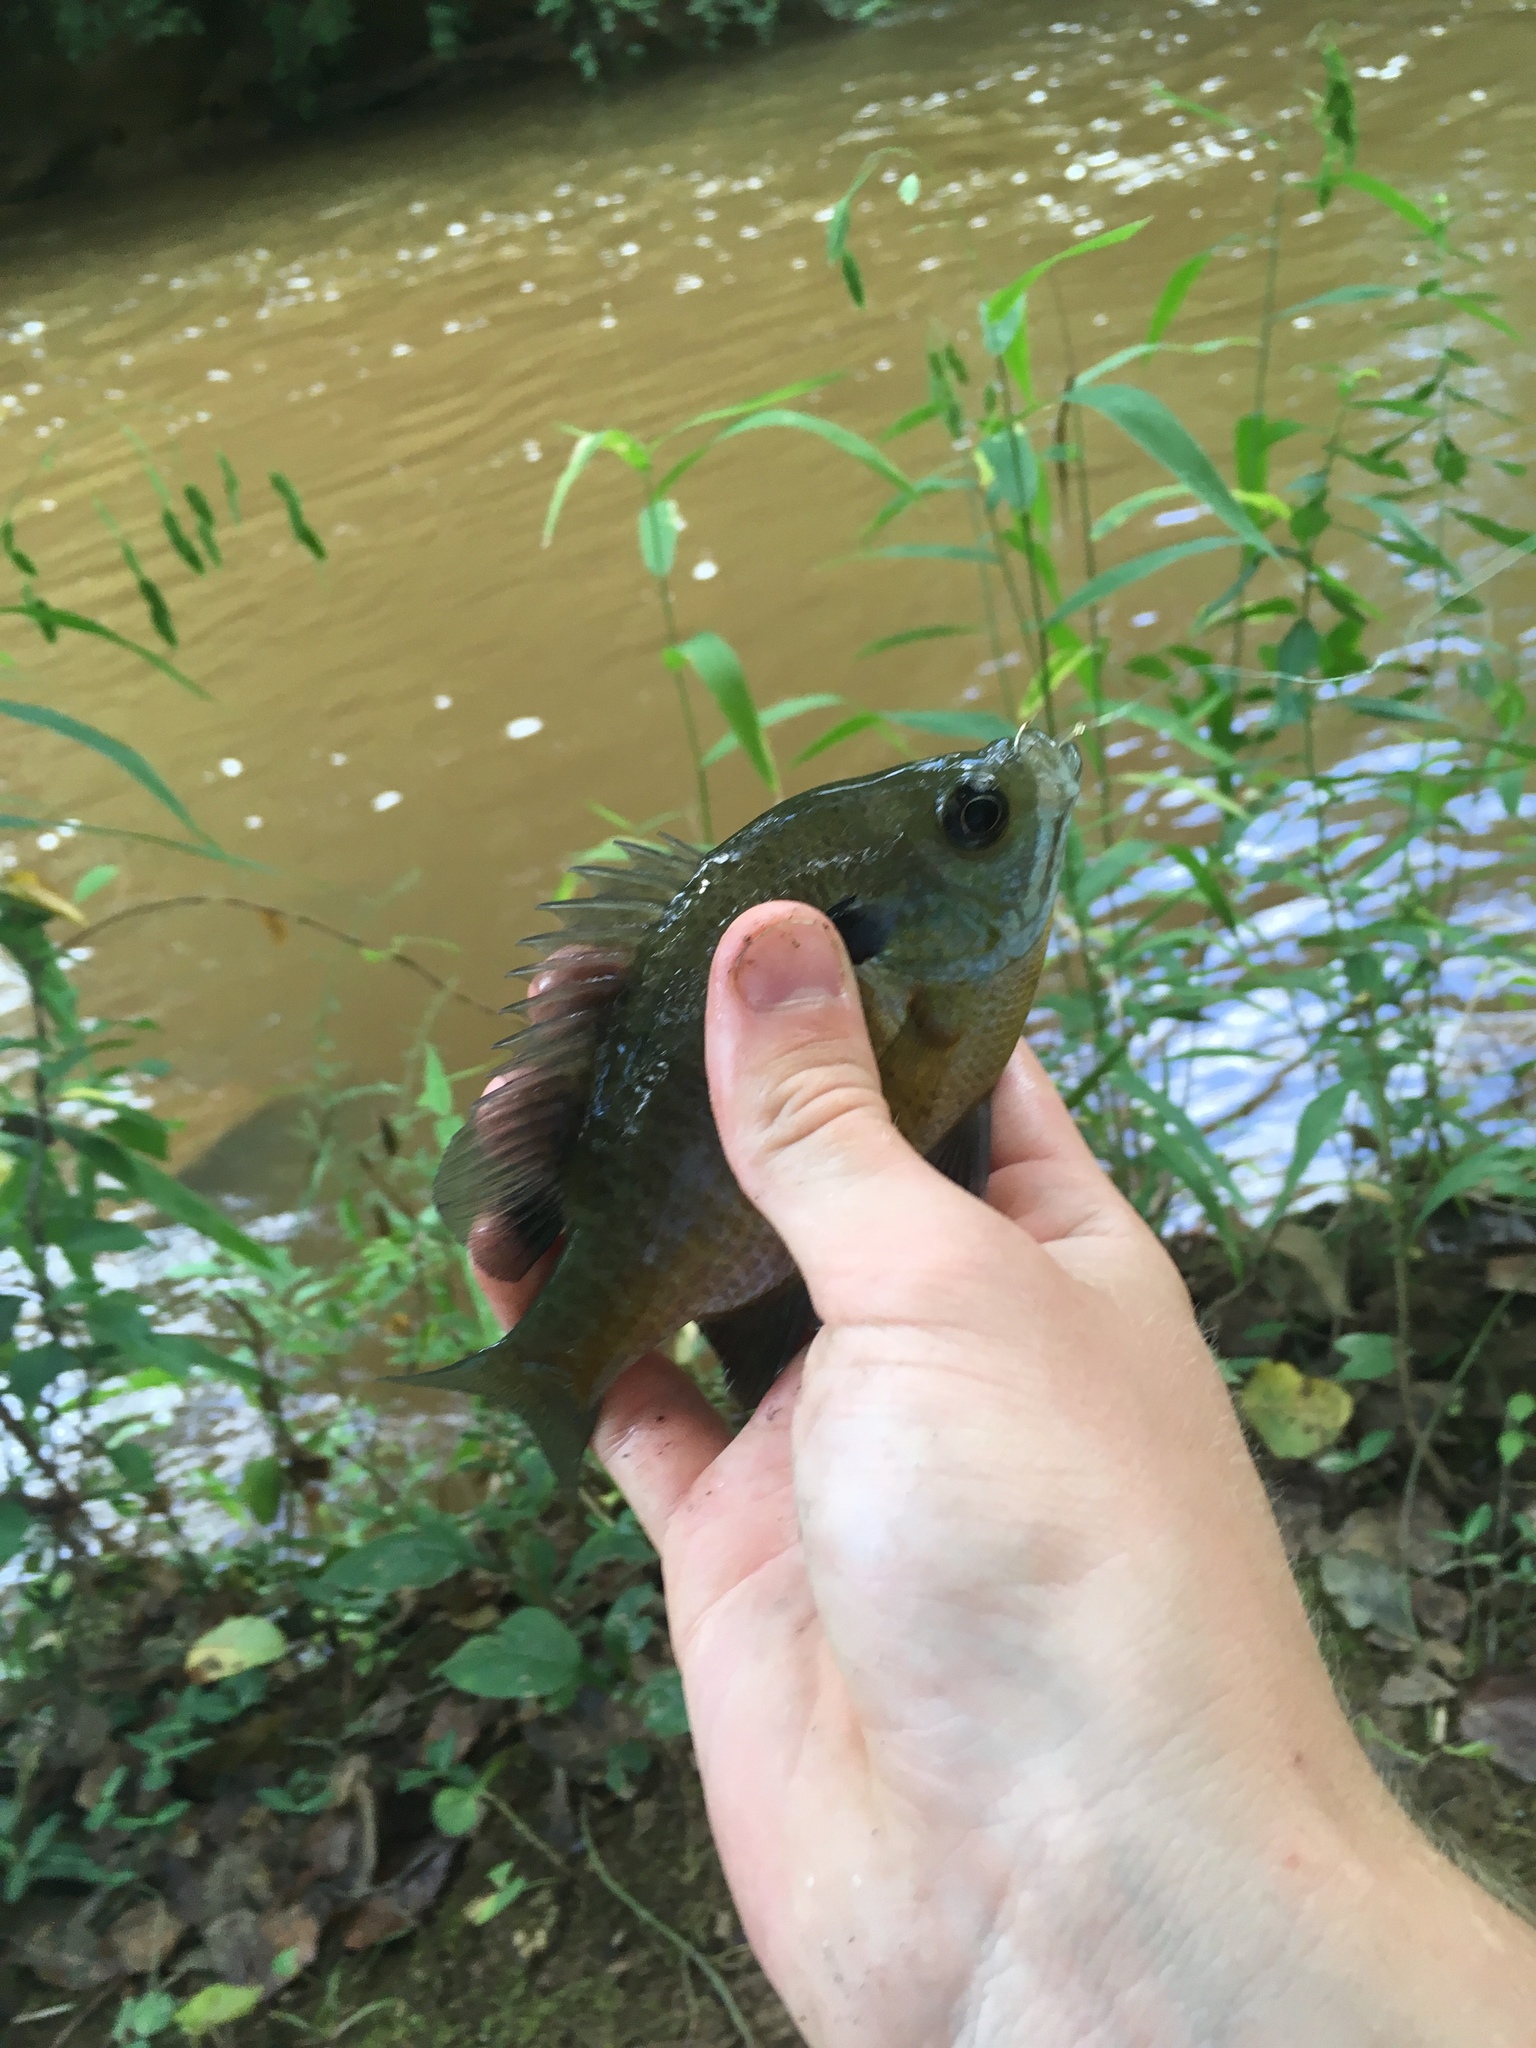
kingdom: Animalia
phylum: Chordata
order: Perciformes
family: Centrarchidae
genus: Lepomis
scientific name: Lepomis macrochirus
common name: Bluegill
